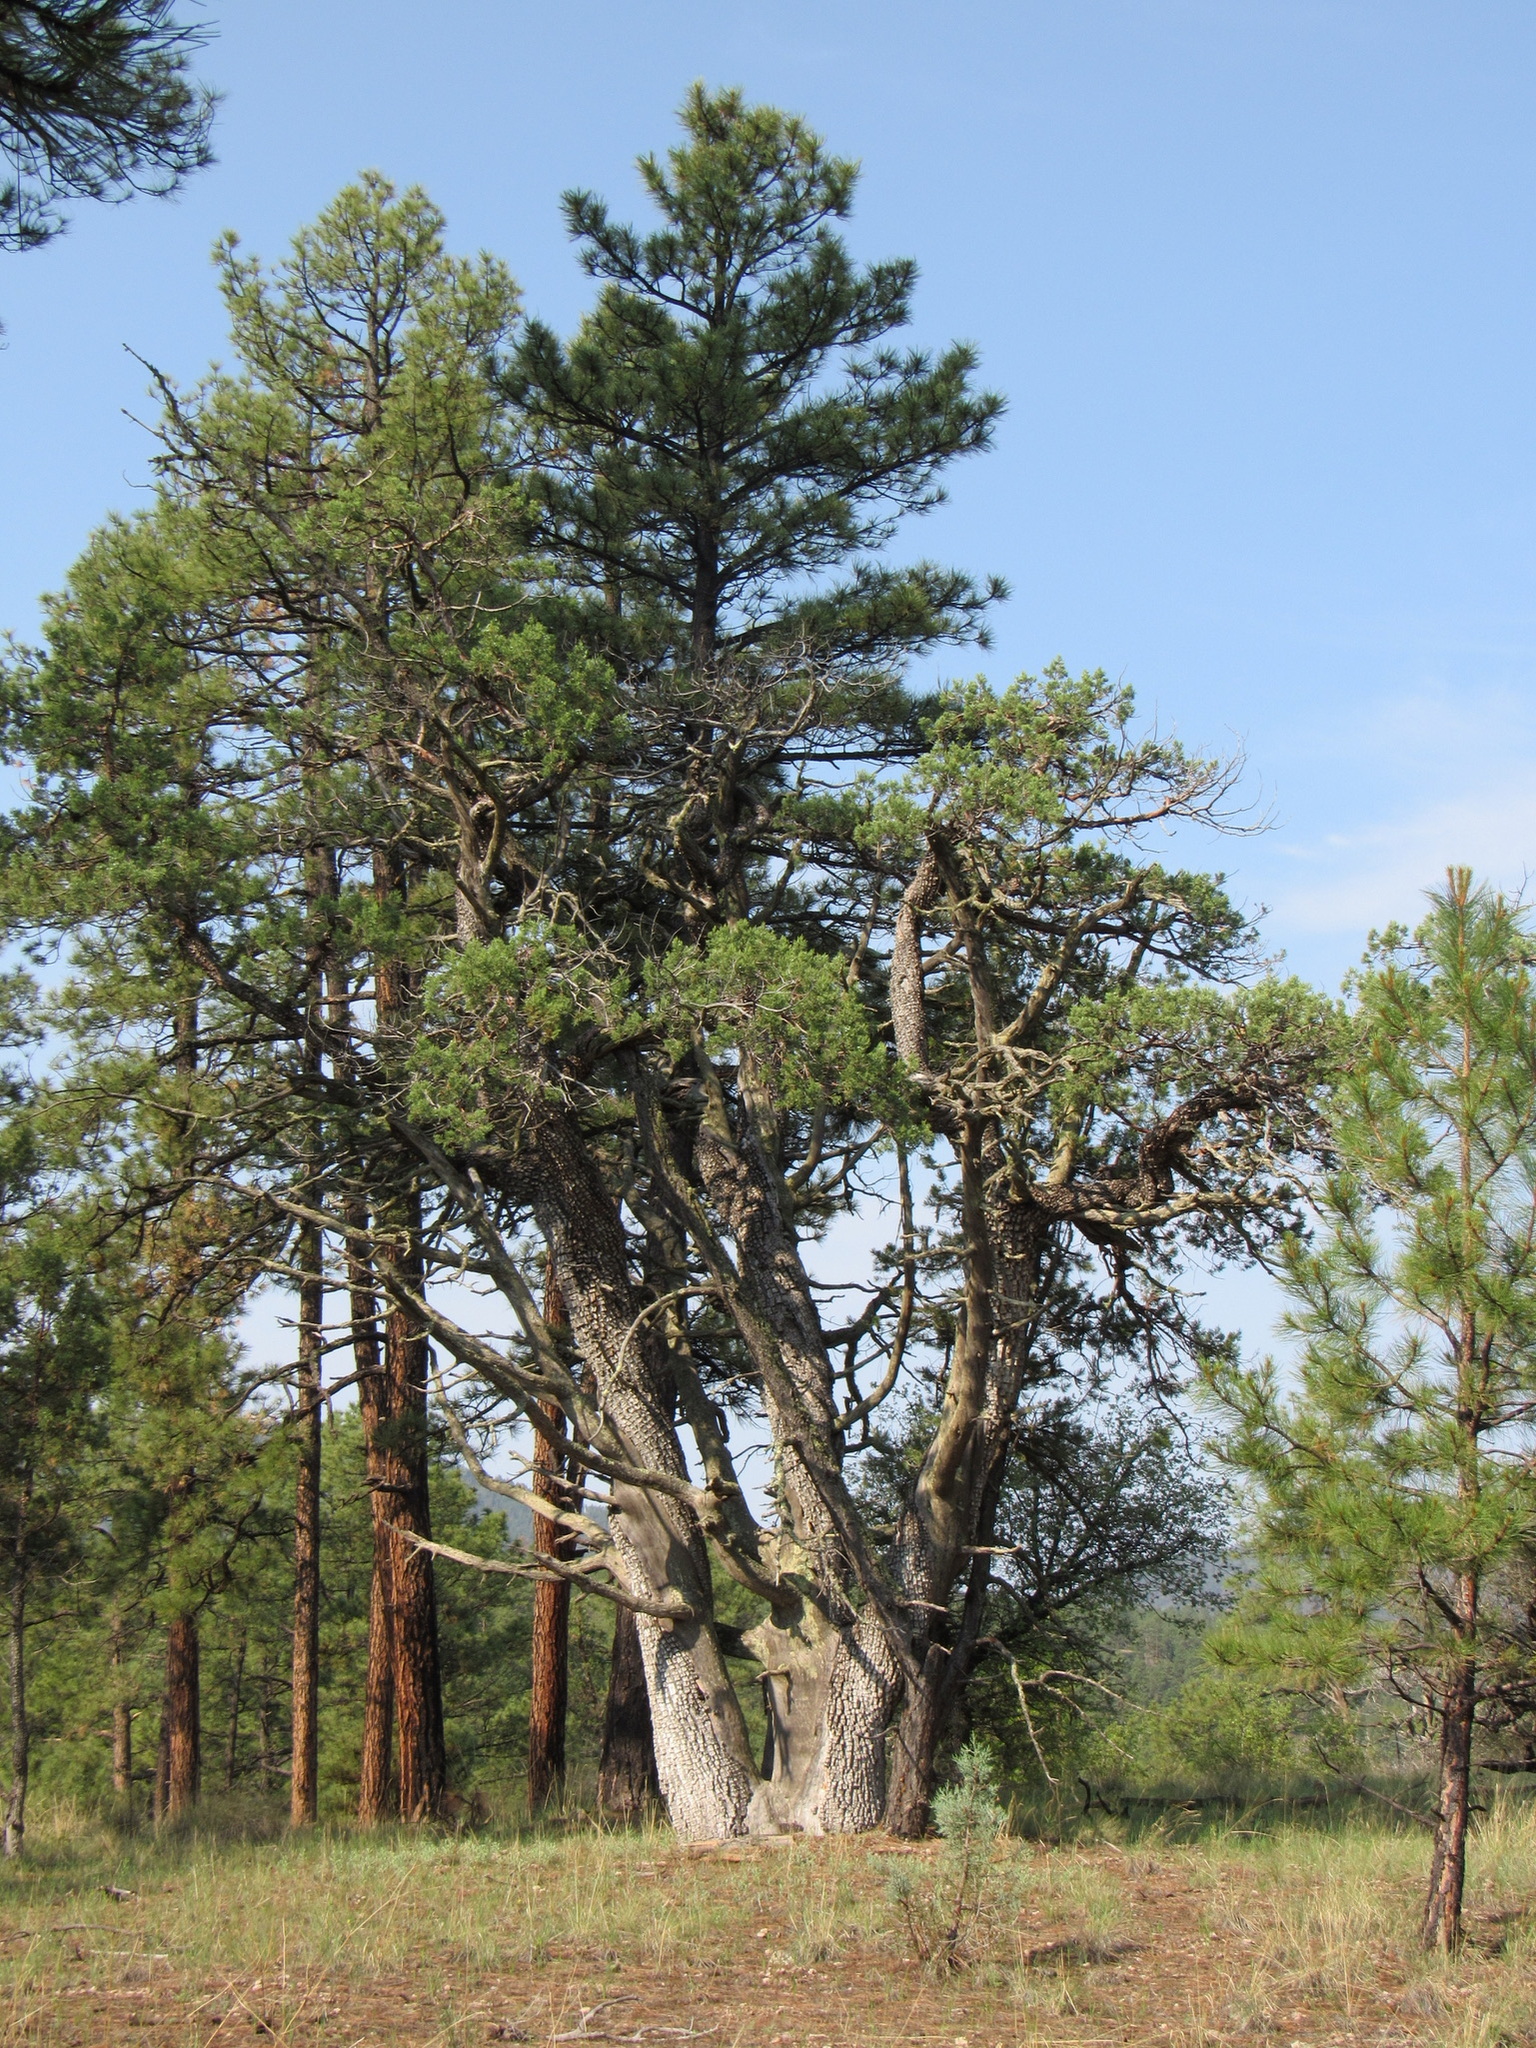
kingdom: Plantae
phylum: Tracheophyta
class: Pinopsida
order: Pinales
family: Cupressaceae
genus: Juniperus
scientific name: Juniperus deppeana
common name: Alligator juniper
